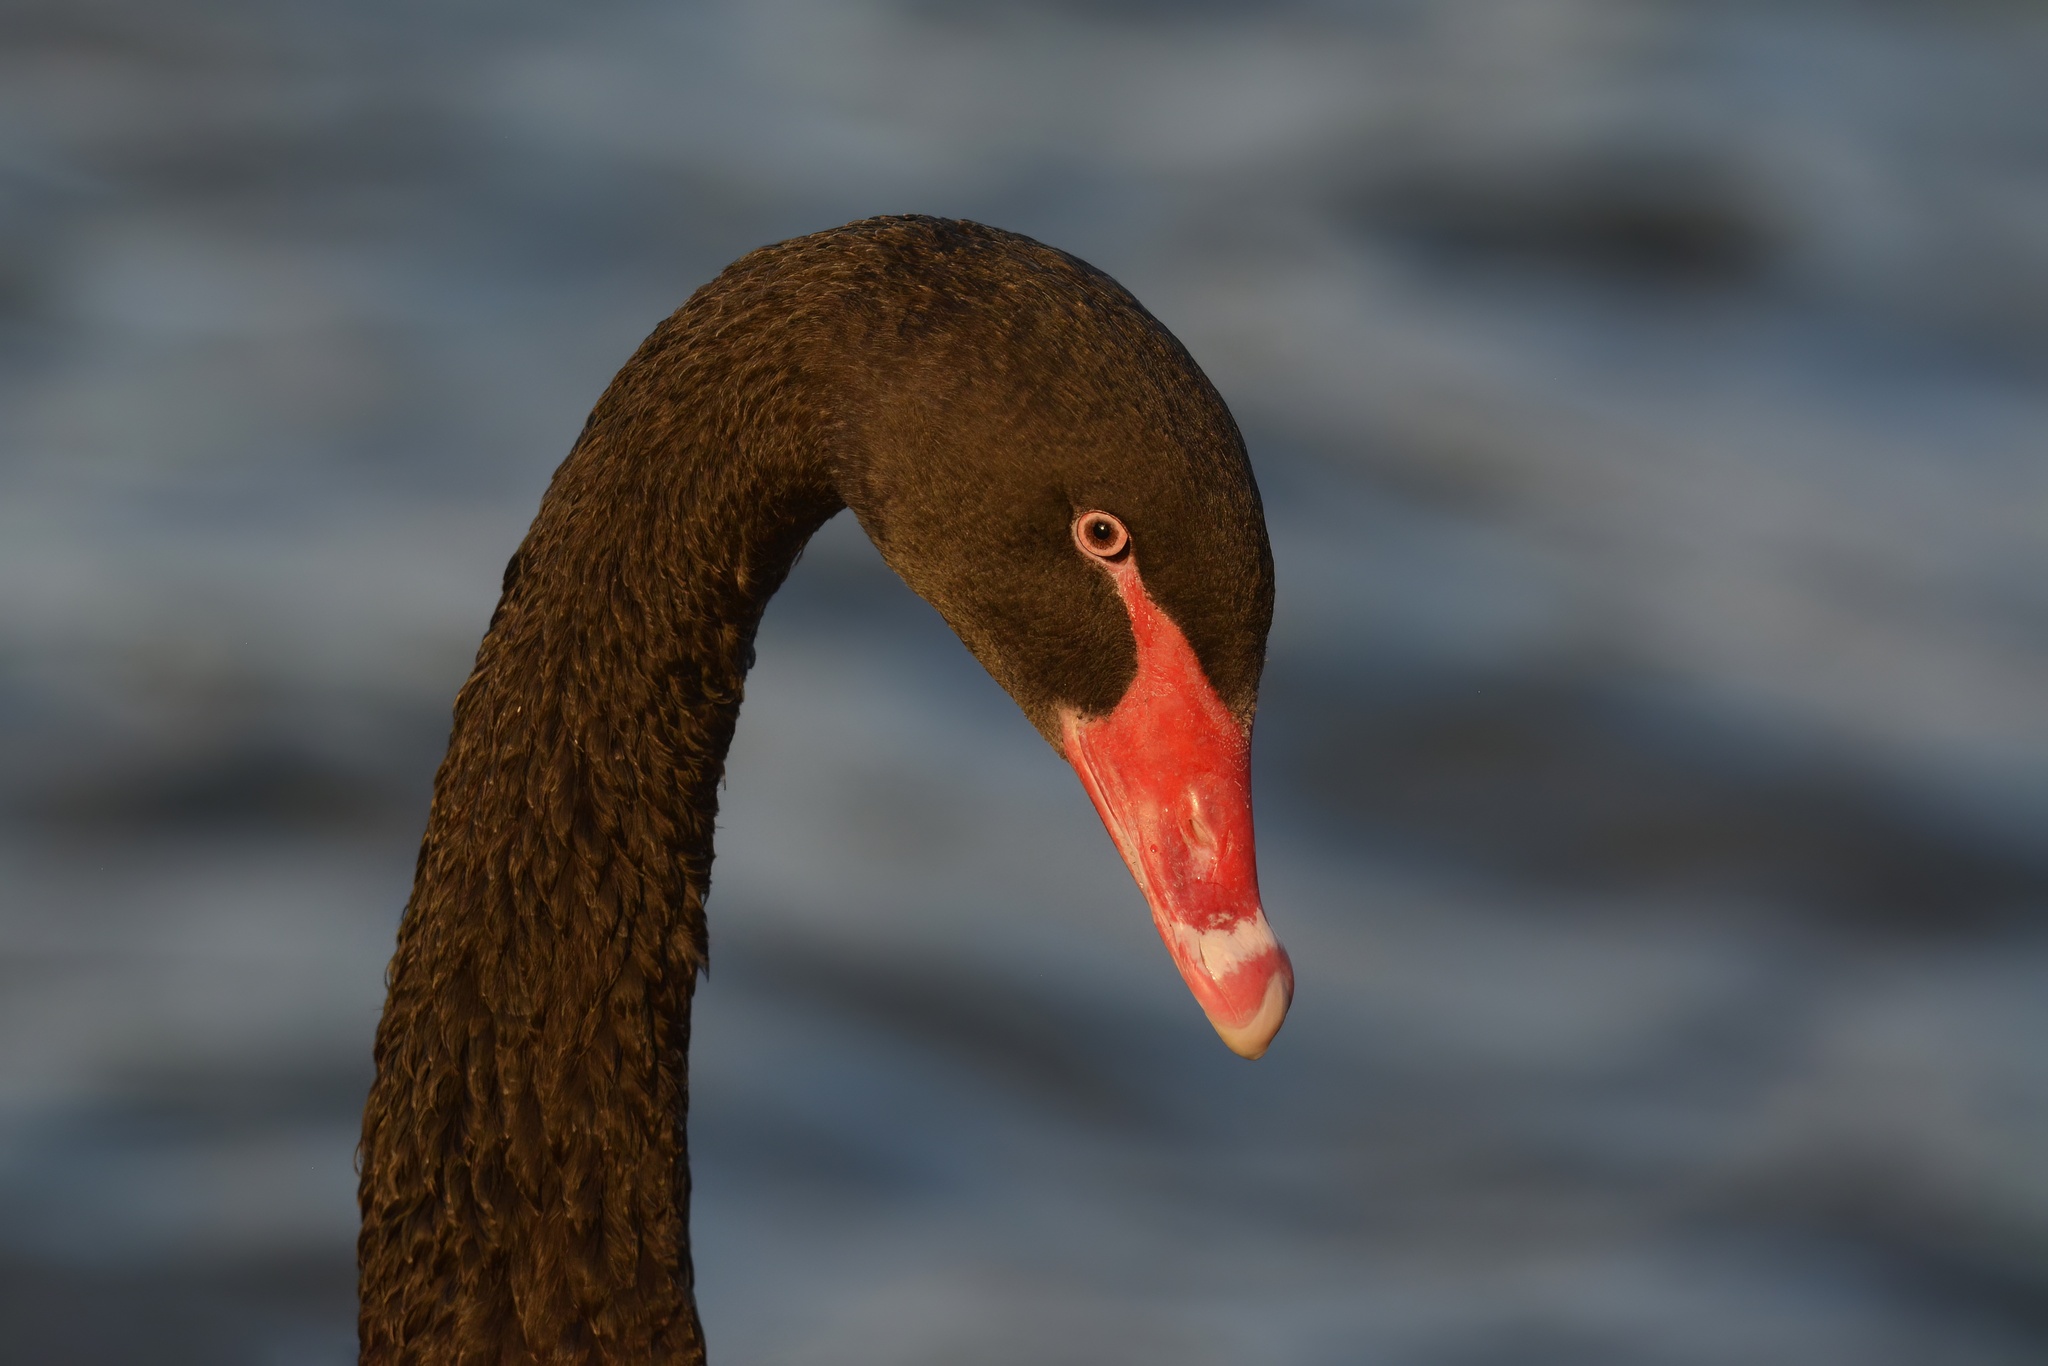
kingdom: Animalia
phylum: Chordata
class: Aves
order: Anseriformes
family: Anatidae
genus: Cygnus
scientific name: Cygnus atratus
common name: Black swan
